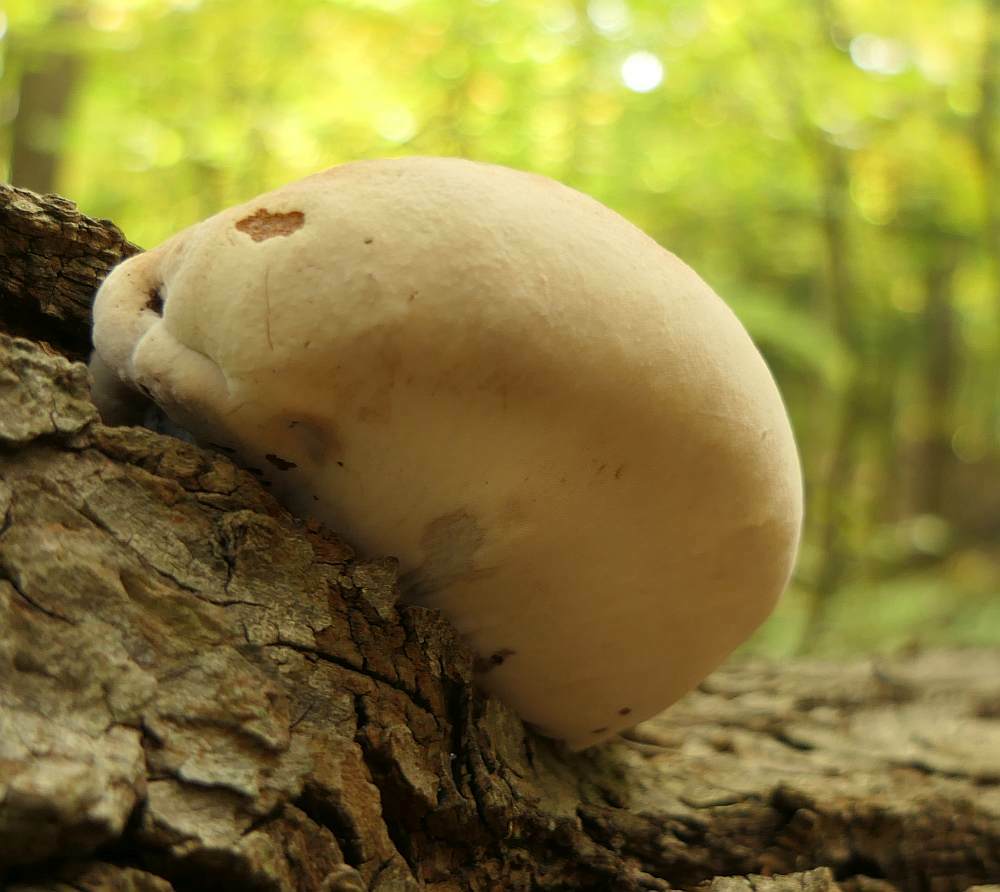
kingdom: Fungi
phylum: Basidiomycota
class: Agaricomycetes
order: Polyporales
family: Ischnodermataceae
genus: Ischnoderma
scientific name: Ischnoderma resinosum
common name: Resinous polypore
